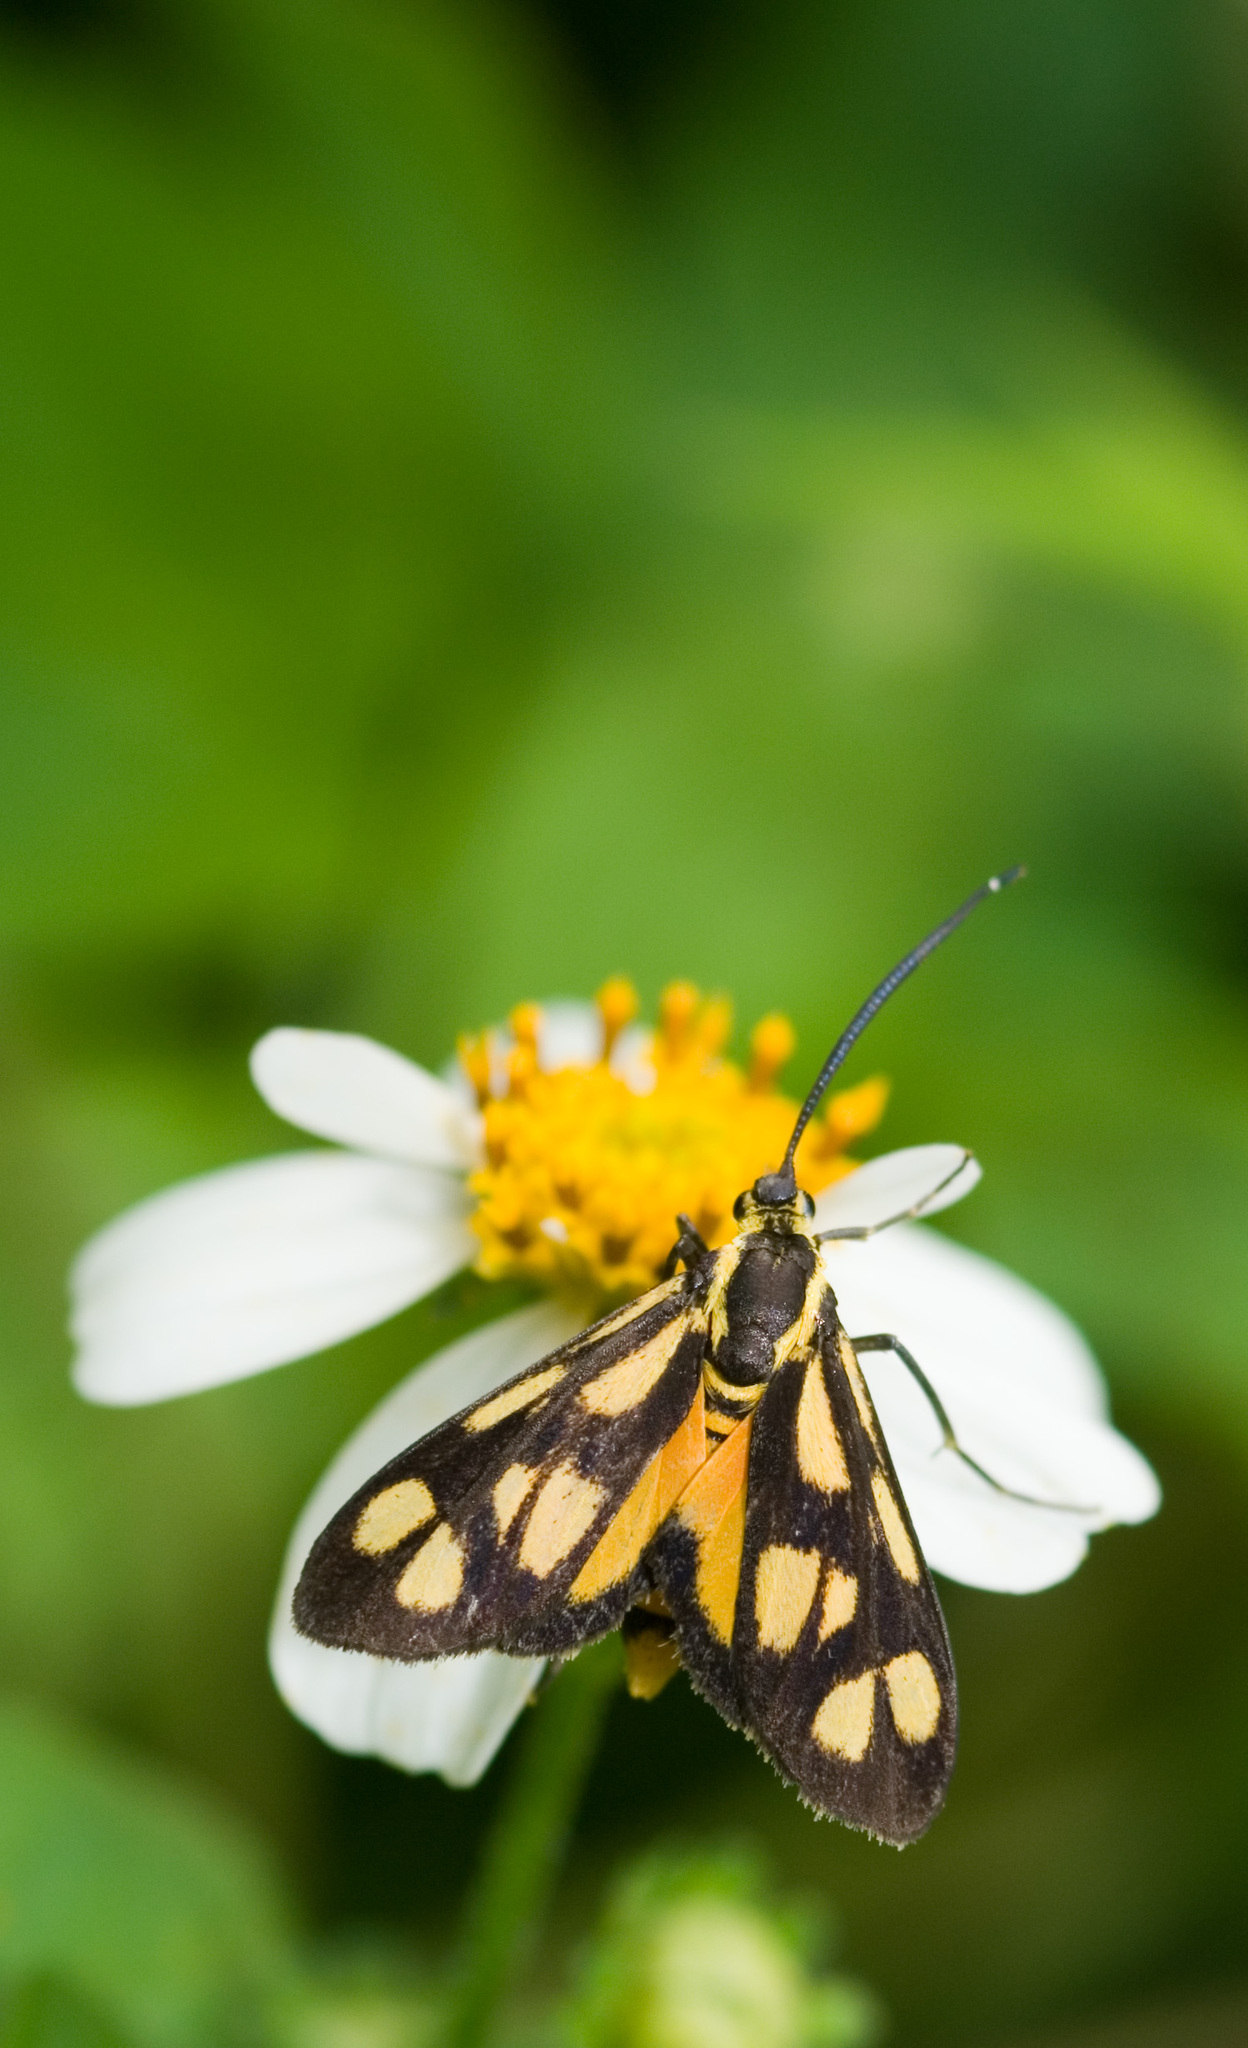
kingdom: Animalia
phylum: Arthropoda
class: Insecta
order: Lepidoptera
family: Zygaenidae
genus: Artona
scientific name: Artona
